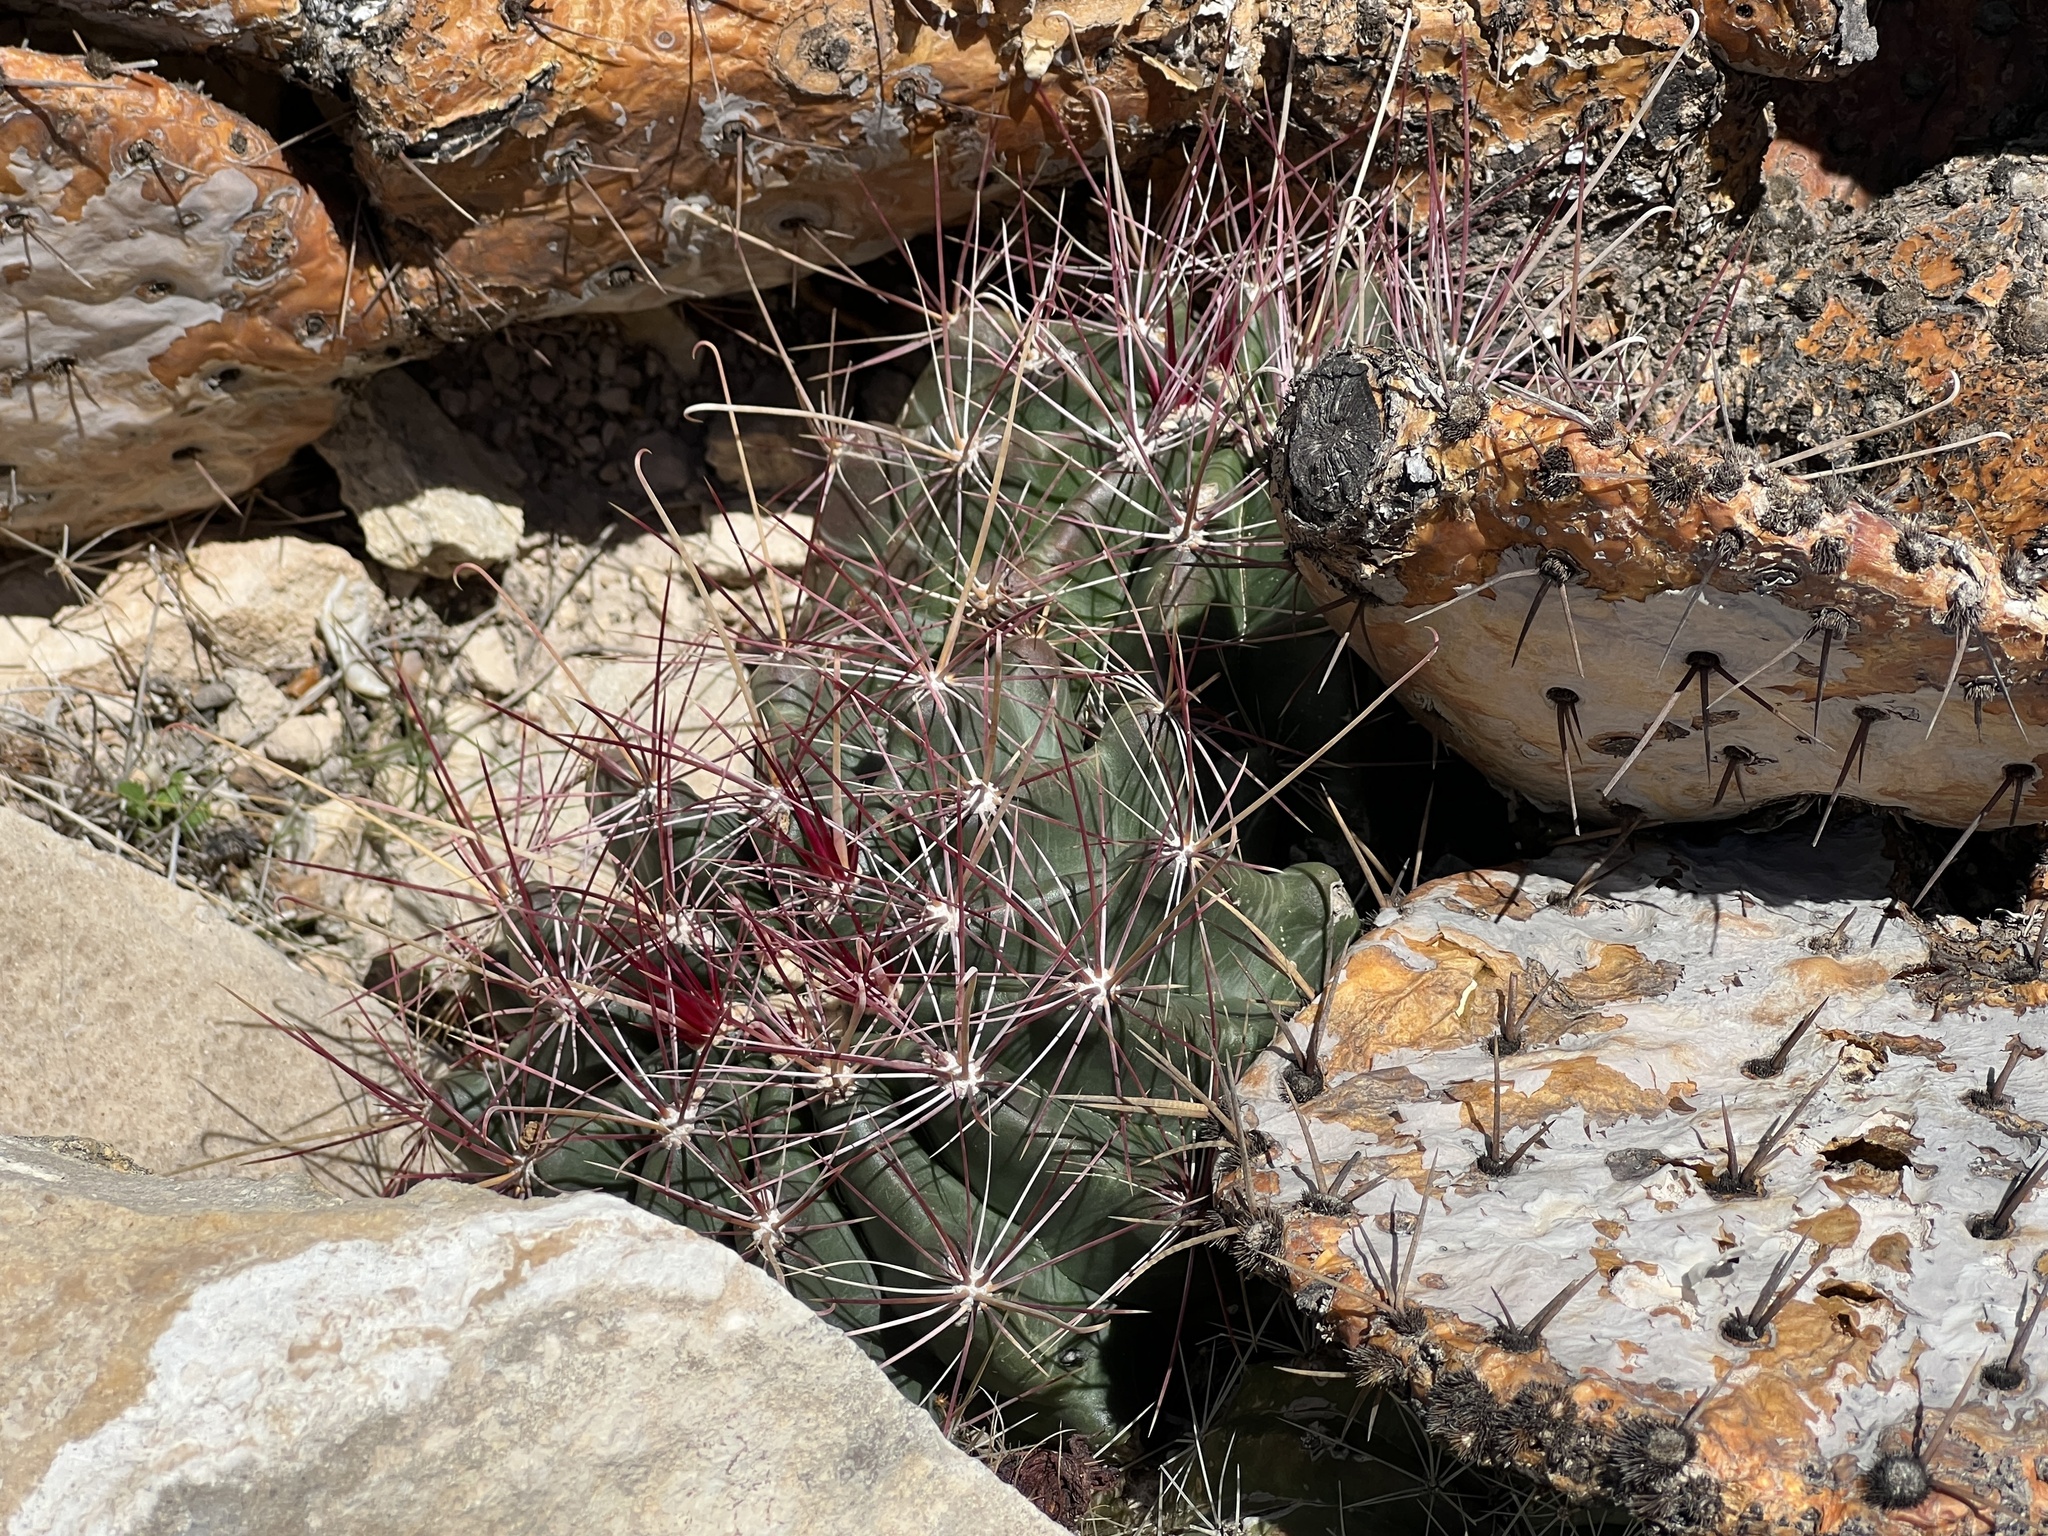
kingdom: Plantae
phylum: Tracheophyta
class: Magnoliopsida
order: Caryophyllales
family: Cactaceae
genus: Bisnaga
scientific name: Bisnaga hamatacantha
